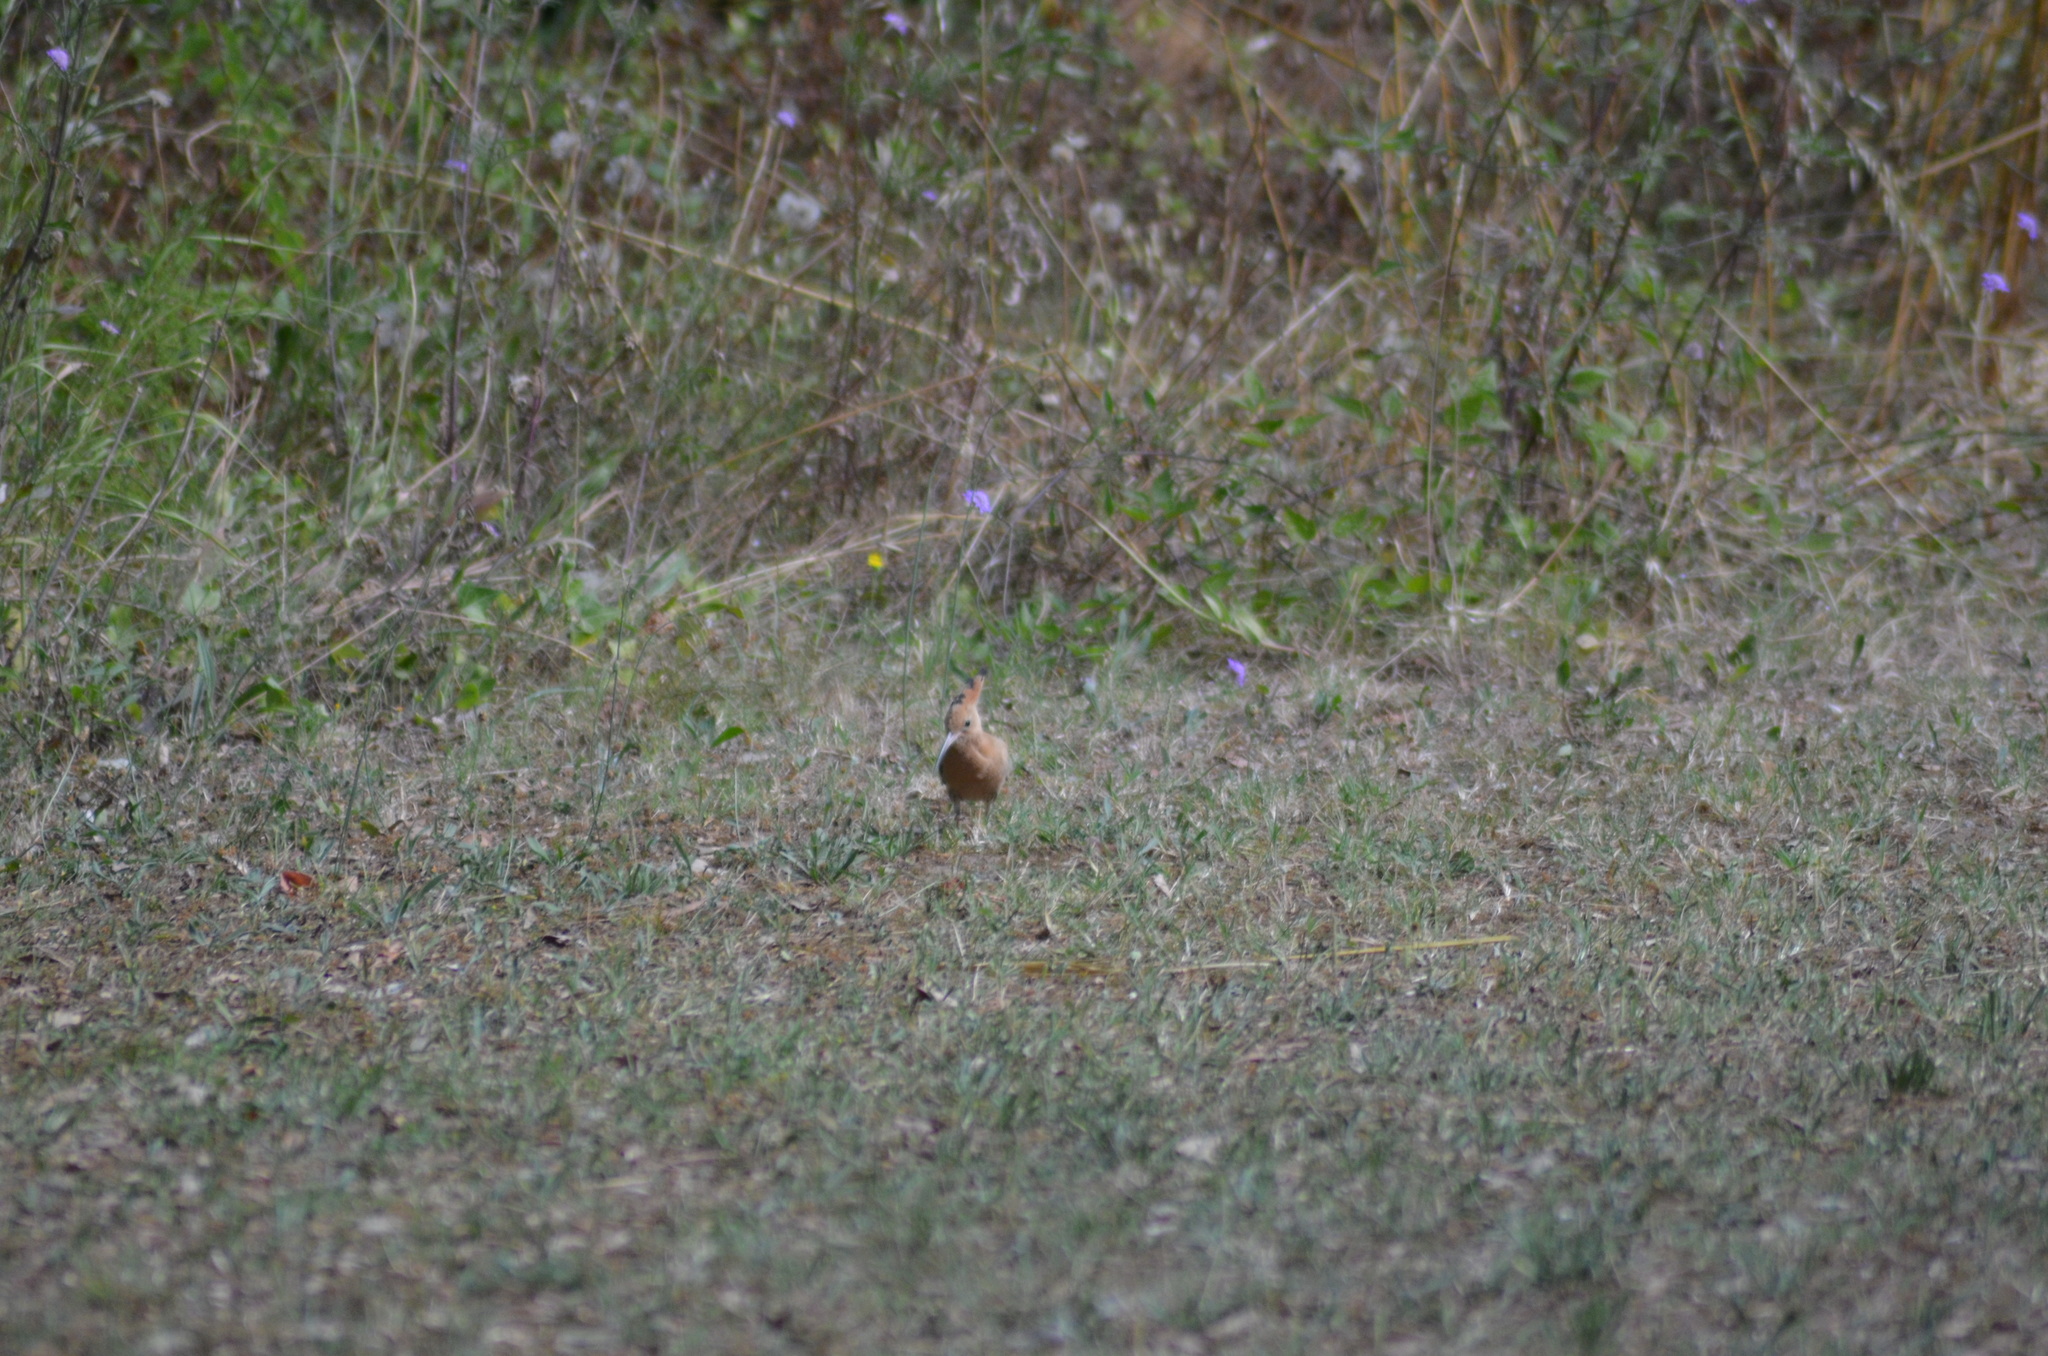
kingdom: Animalia
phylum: Chordata
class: Aves
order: Bucerotiformes
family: Upupidae
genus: Upupa
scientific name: Upupa epops
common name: Eurasian hoopoe
